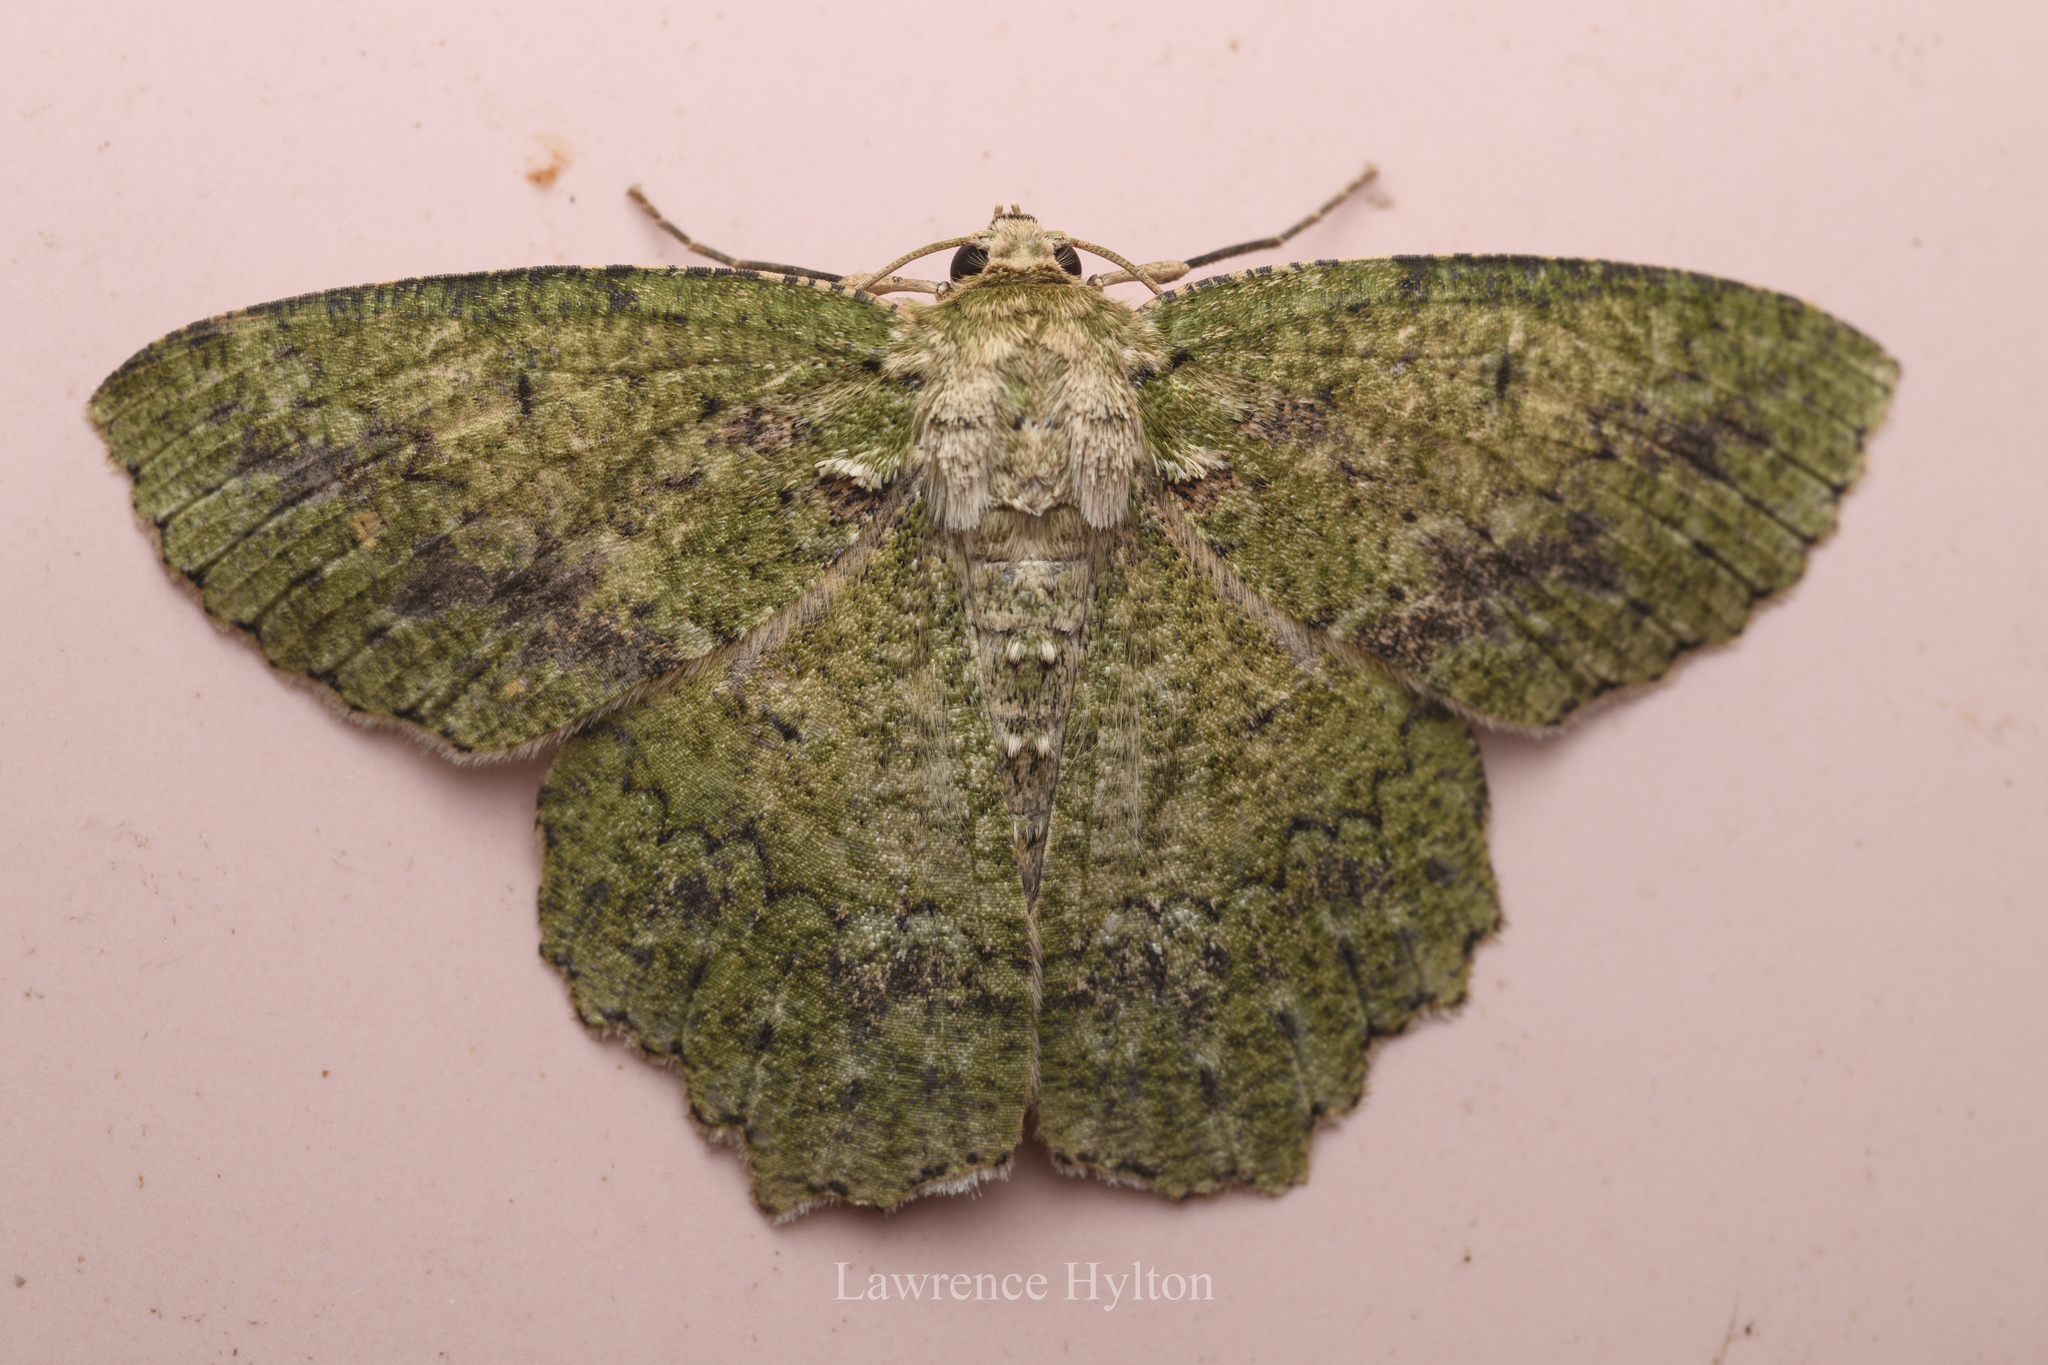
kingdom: Animalia
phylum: Arthropoda
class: Insecta
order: Lepidoptera
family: Geometridae
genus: Herochroma
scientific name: Herochroma viridaria
